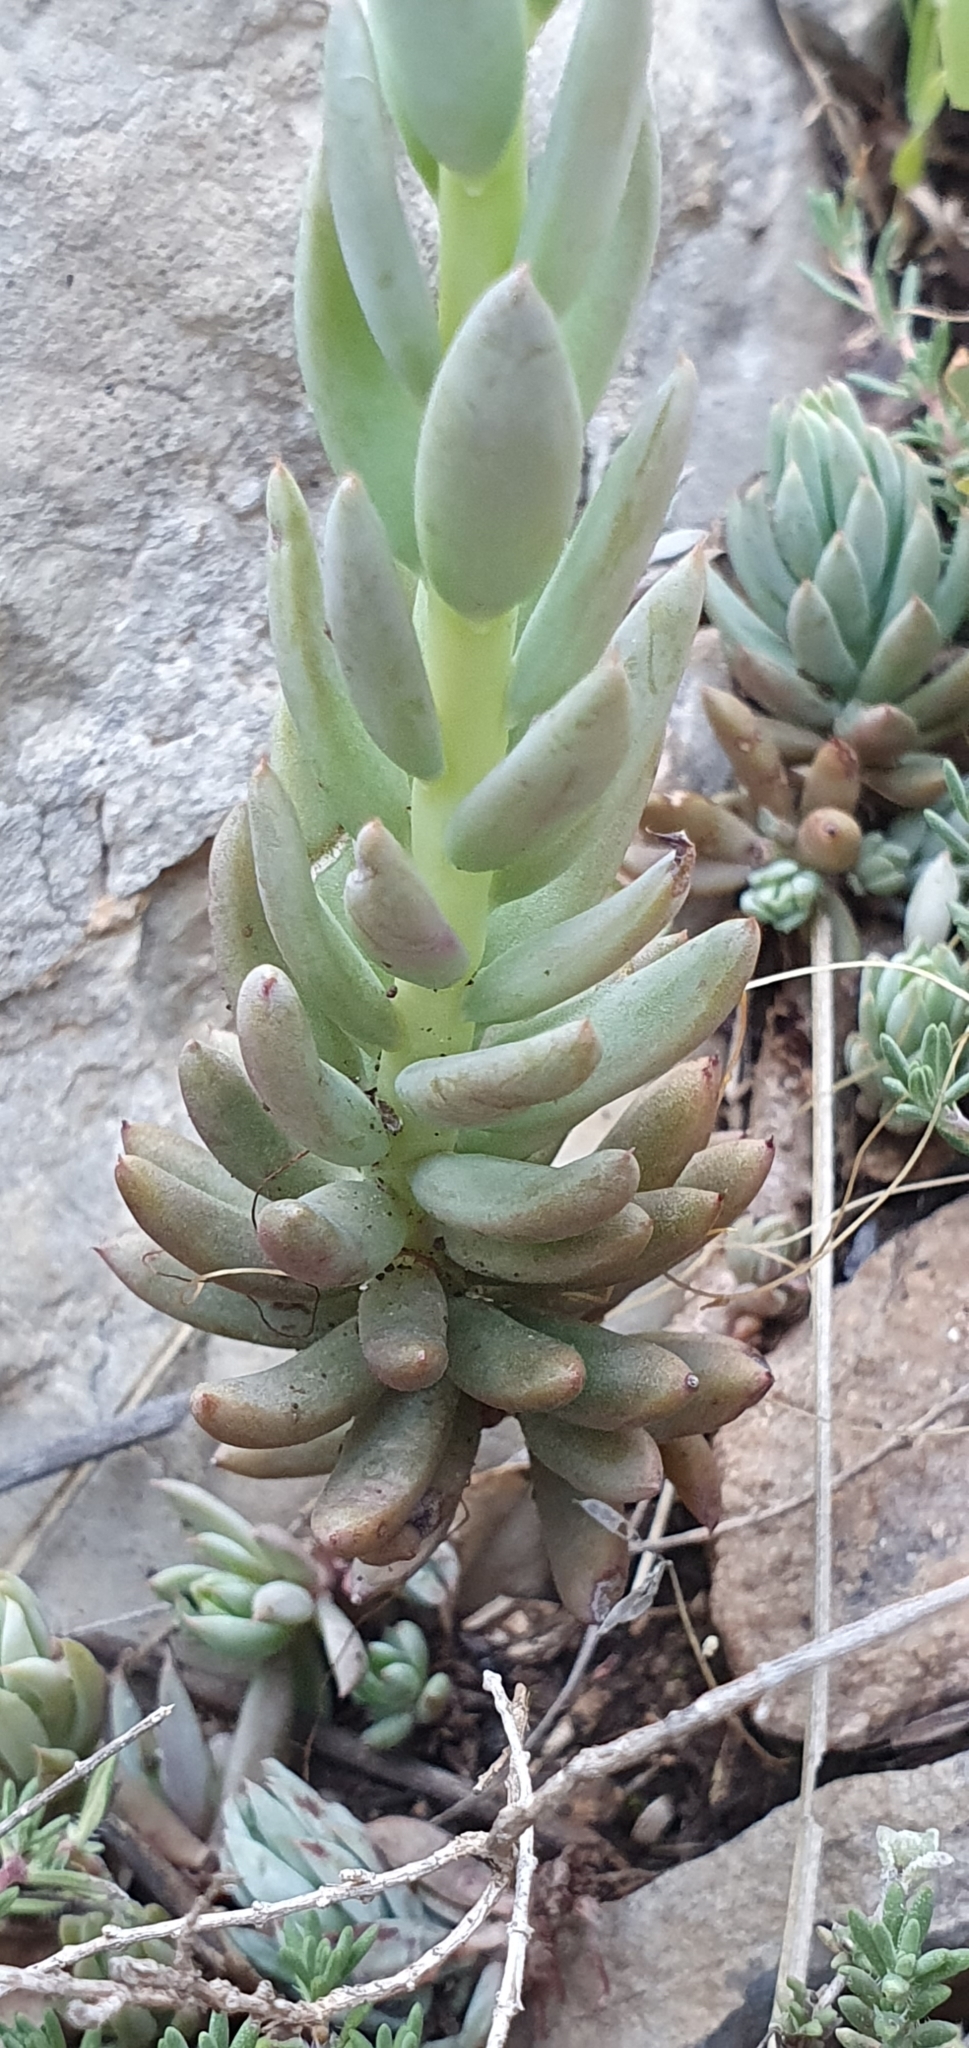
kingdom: Plantae
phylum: Tracheophyta
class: Magnoliopsida
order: Saxifragales
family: Crassulaceae
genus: Petrosedum
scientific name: Petrosedum sediforme
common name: Pale stonecrop
